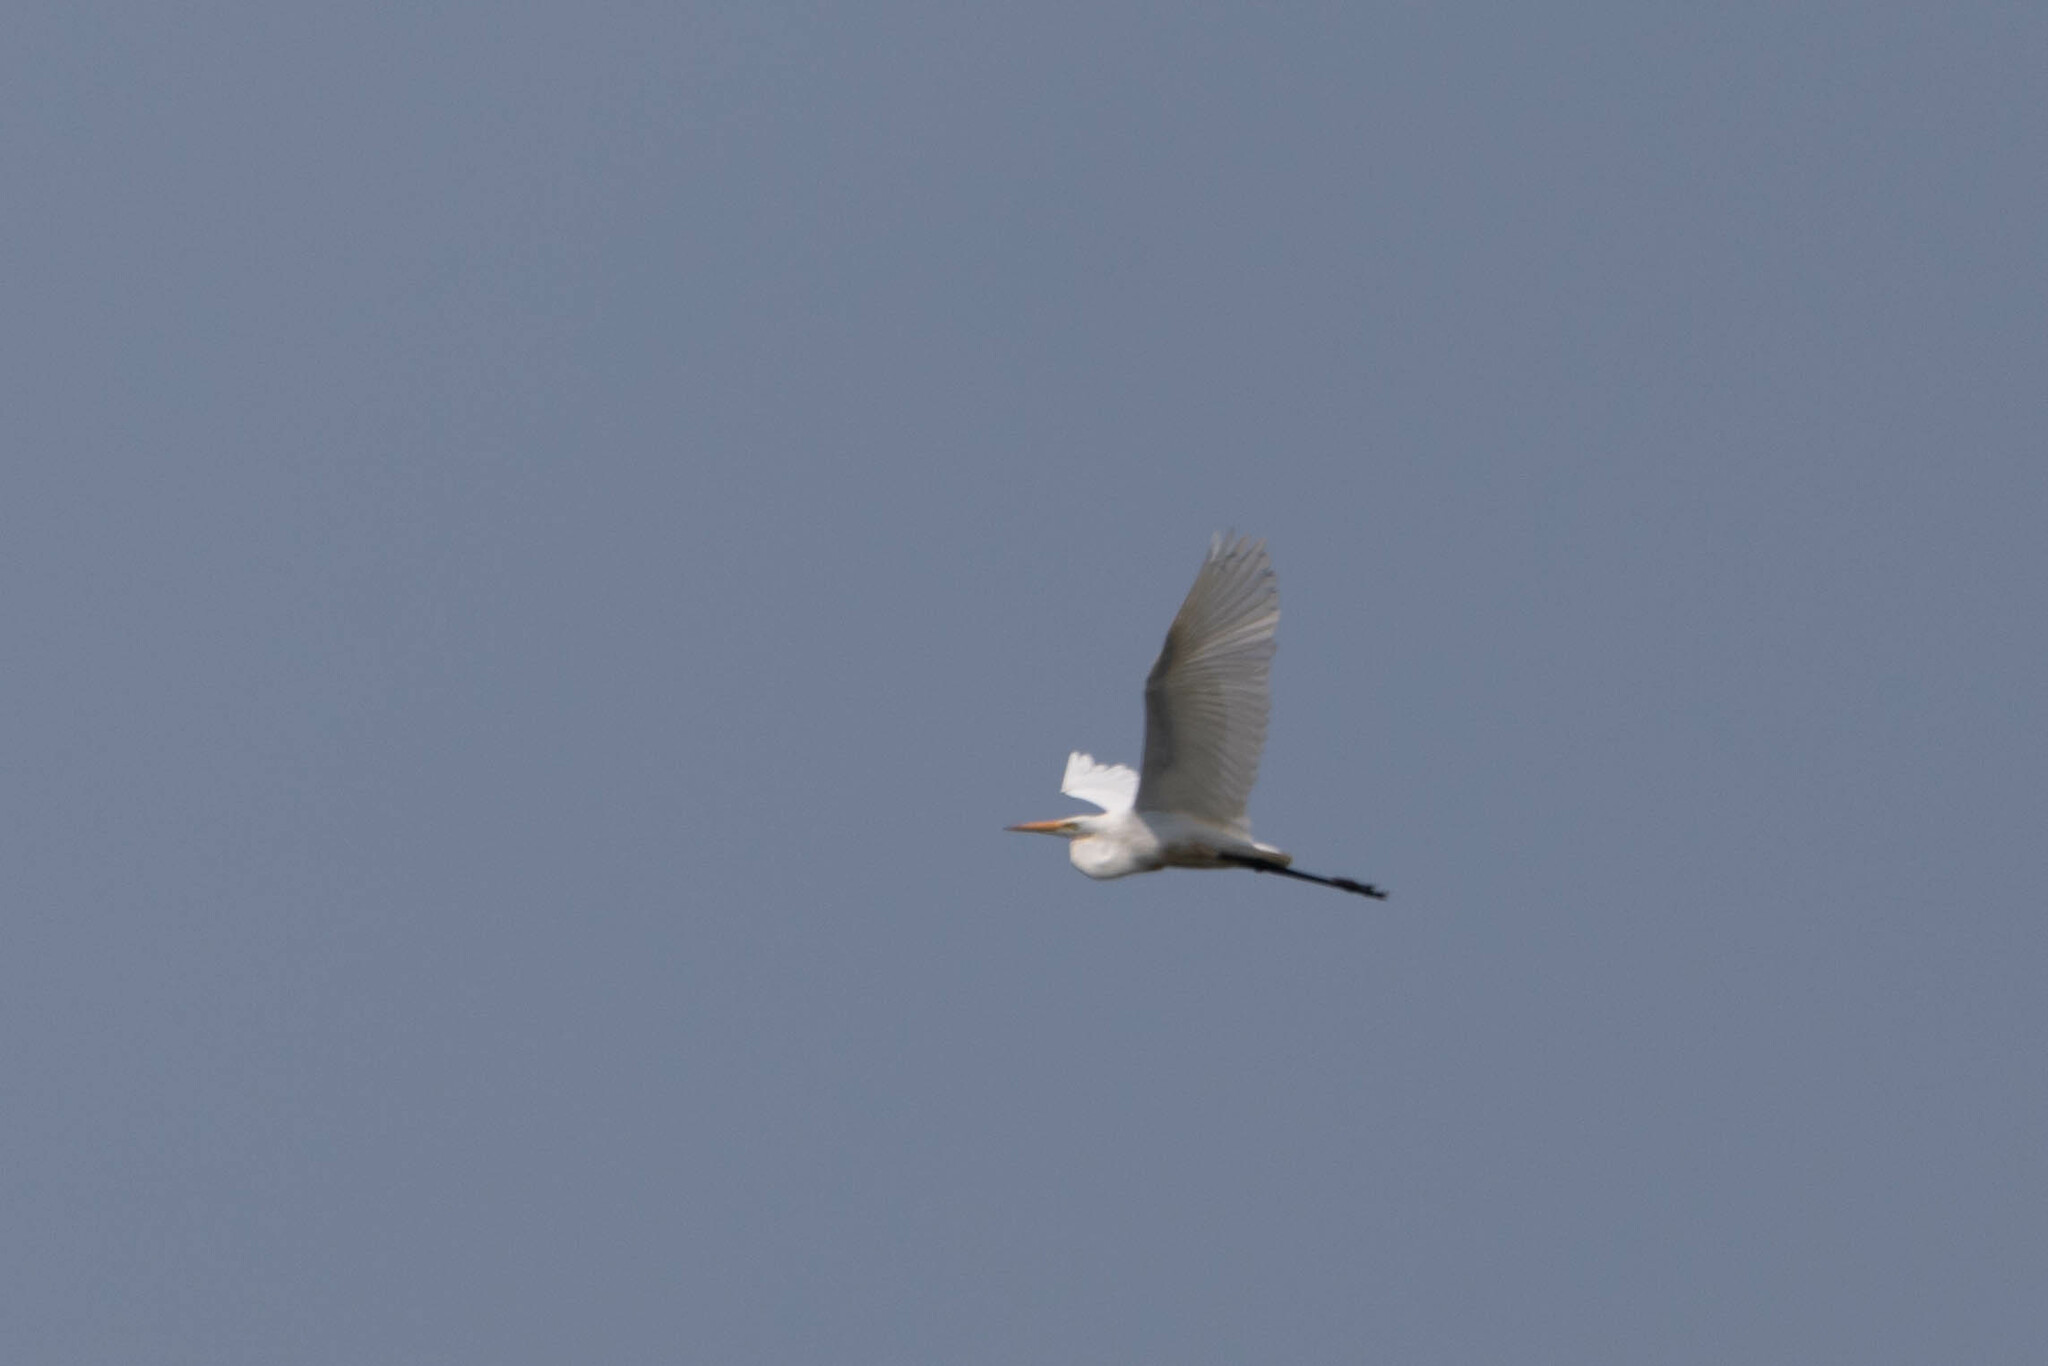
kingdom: Animalia
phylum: Chordata
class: Aves
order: Pelecaniformes
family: Ardeidae
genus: Ardea
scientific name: Ardea alba
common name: Great egret
